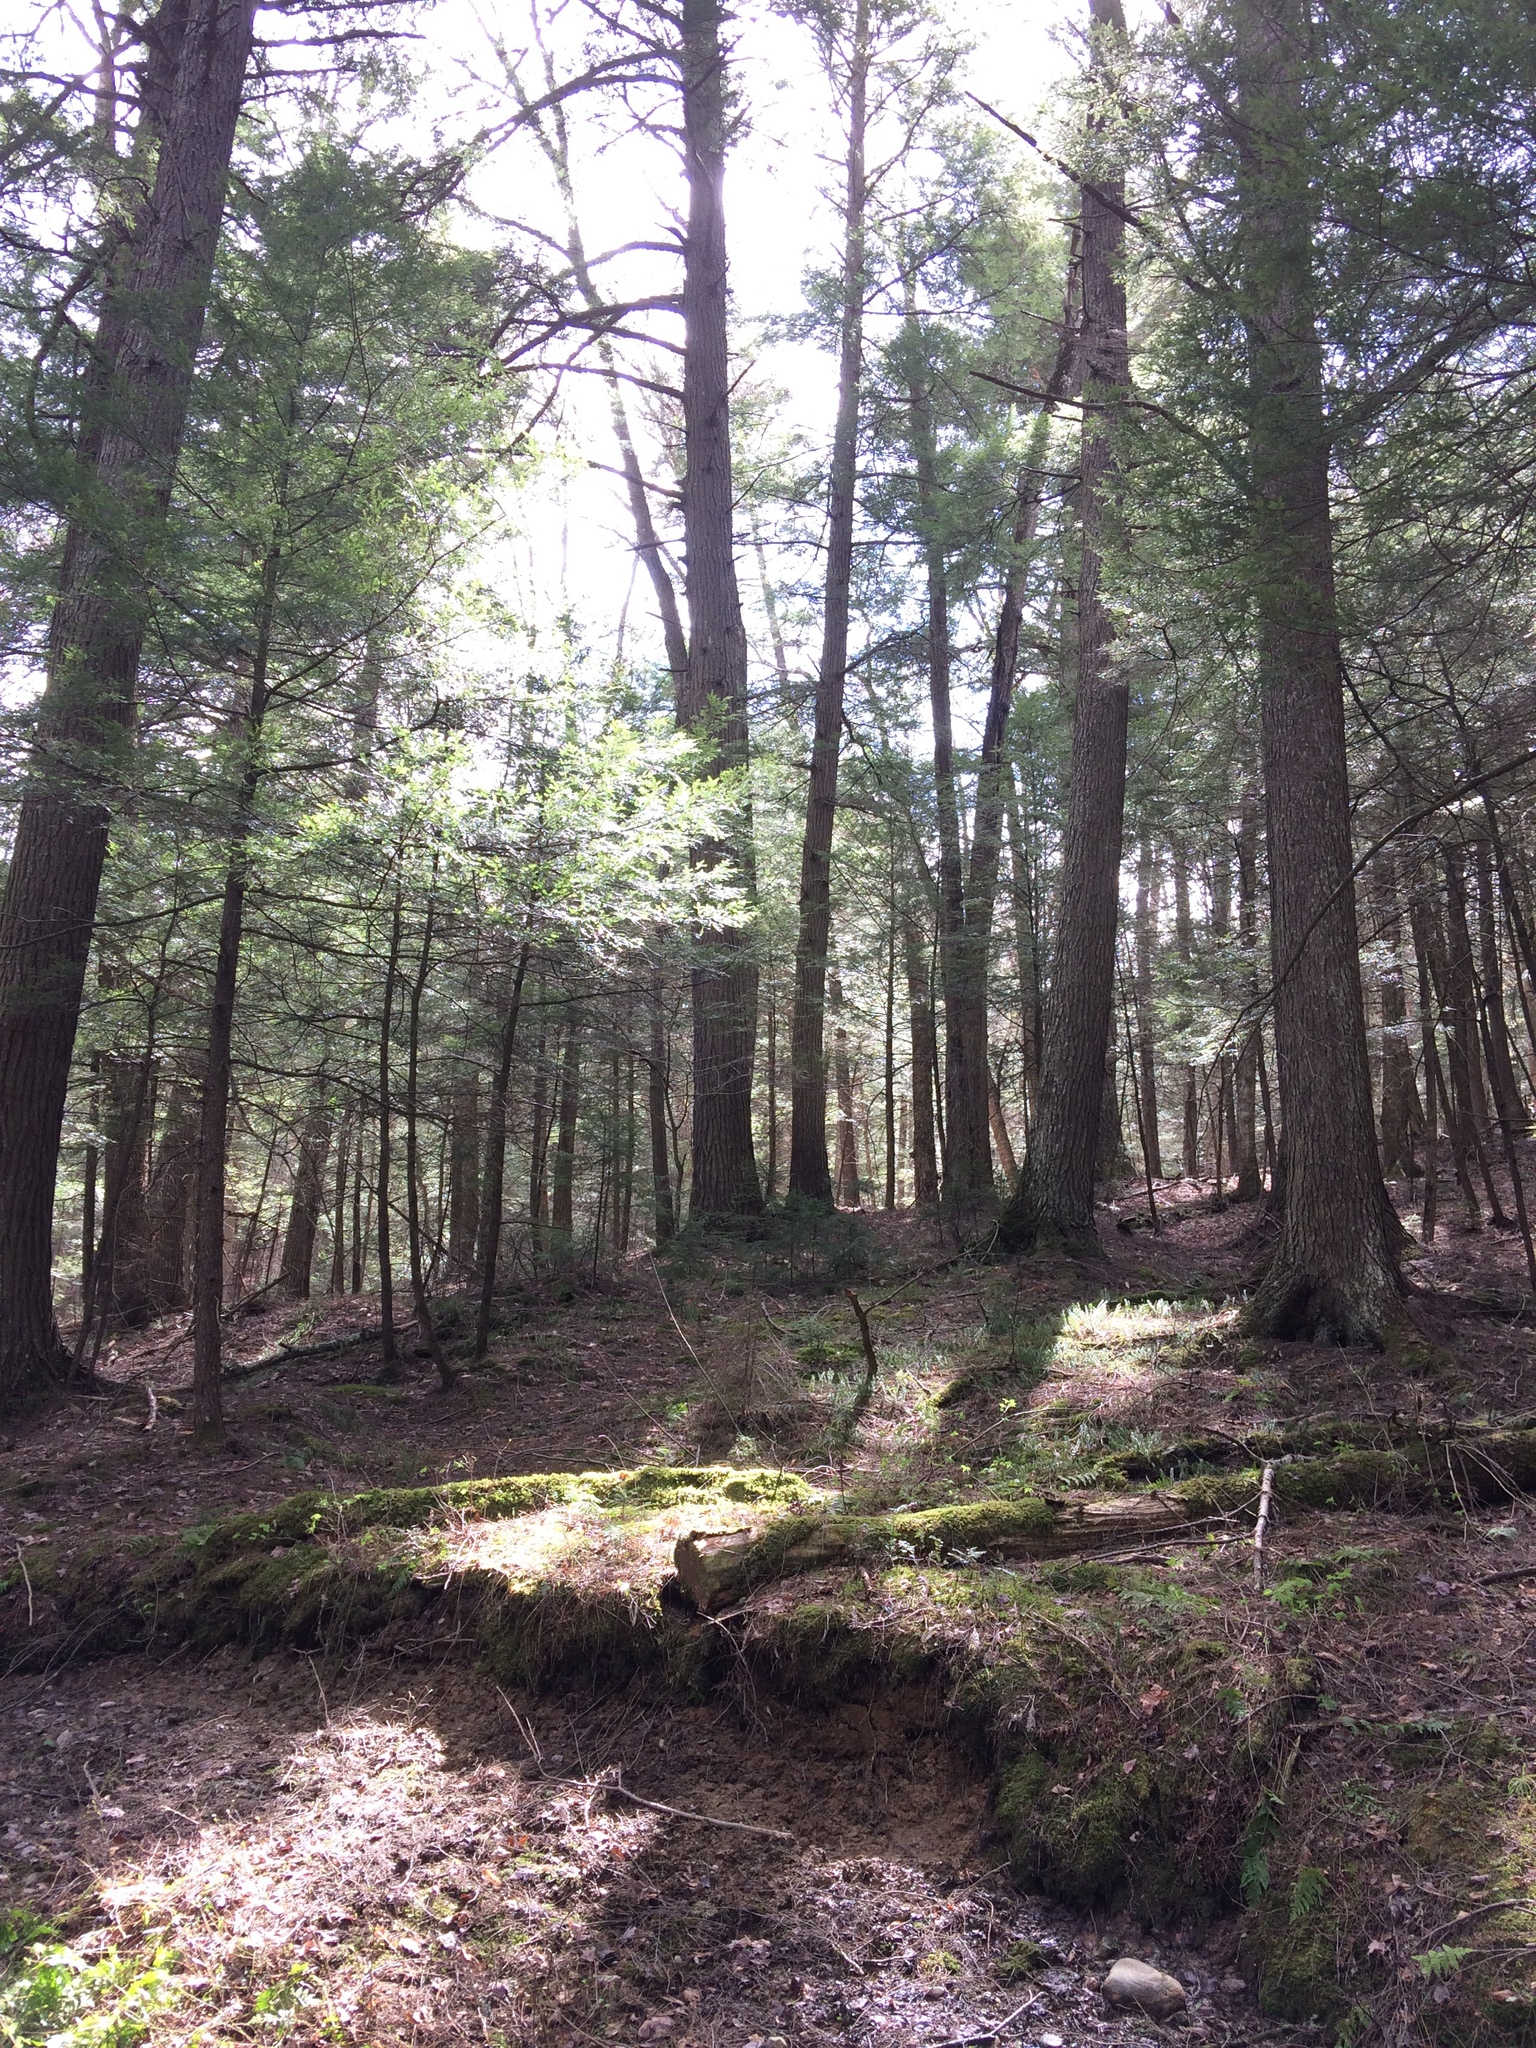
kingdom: Plantae
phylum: Tracheophyta
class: Pinopsida
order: Pinales
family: Pinaceae
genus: Tsuga
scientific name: Tsuga canadensis
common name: Eastern hemlock
